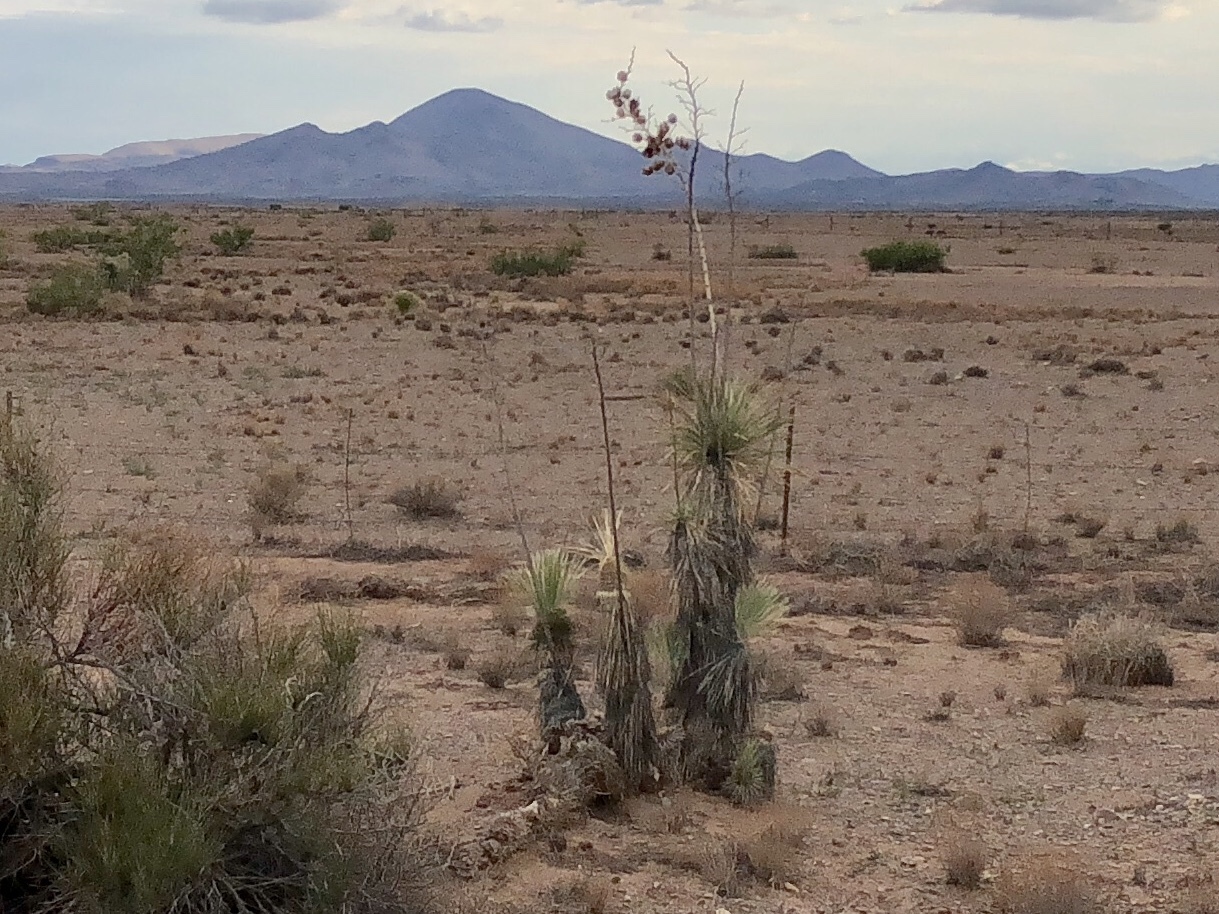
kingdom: Plantae
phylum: Tracheophyta
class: Liliopsida
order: Asparagales
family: Asparagaceae
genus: Yucca
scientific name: Yucca elata
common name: Palmella
